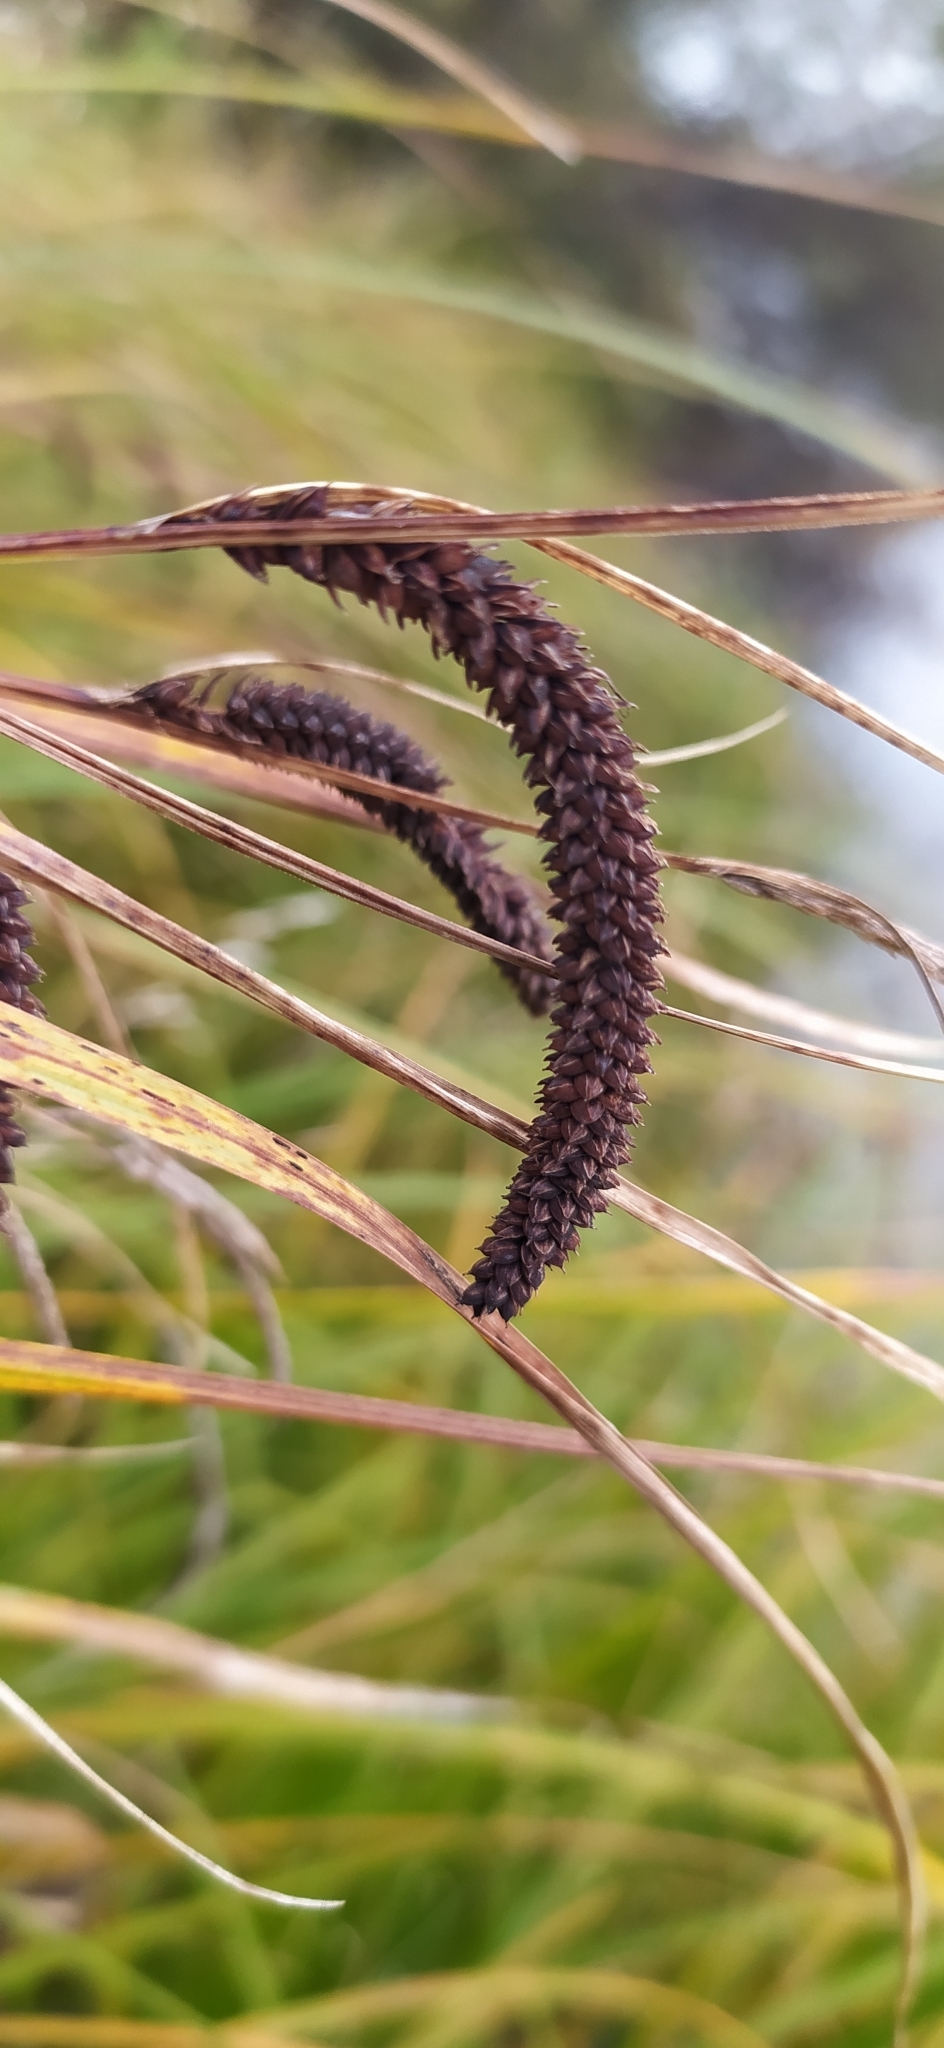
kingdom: Plantae
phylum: Tracheophyta
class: Liliopsida
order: Poales
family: Cyperaceae
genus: Carex
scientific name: Carex acuta
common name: Slender tufted-sedge
